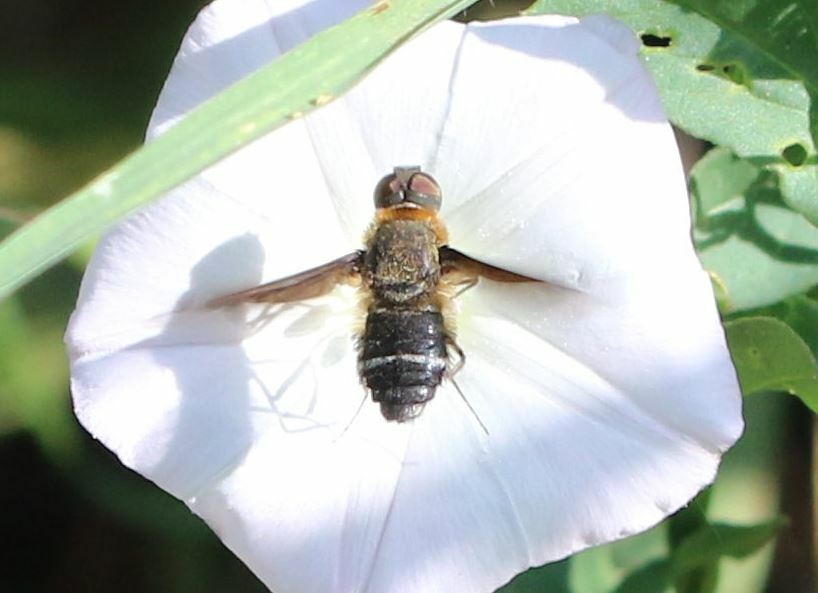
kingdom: Animalia
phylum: Arthropoda
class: Insecta
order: Diptera
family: Bombyliidae
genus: Hemipenthes
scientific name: Hemipenthes velutina
